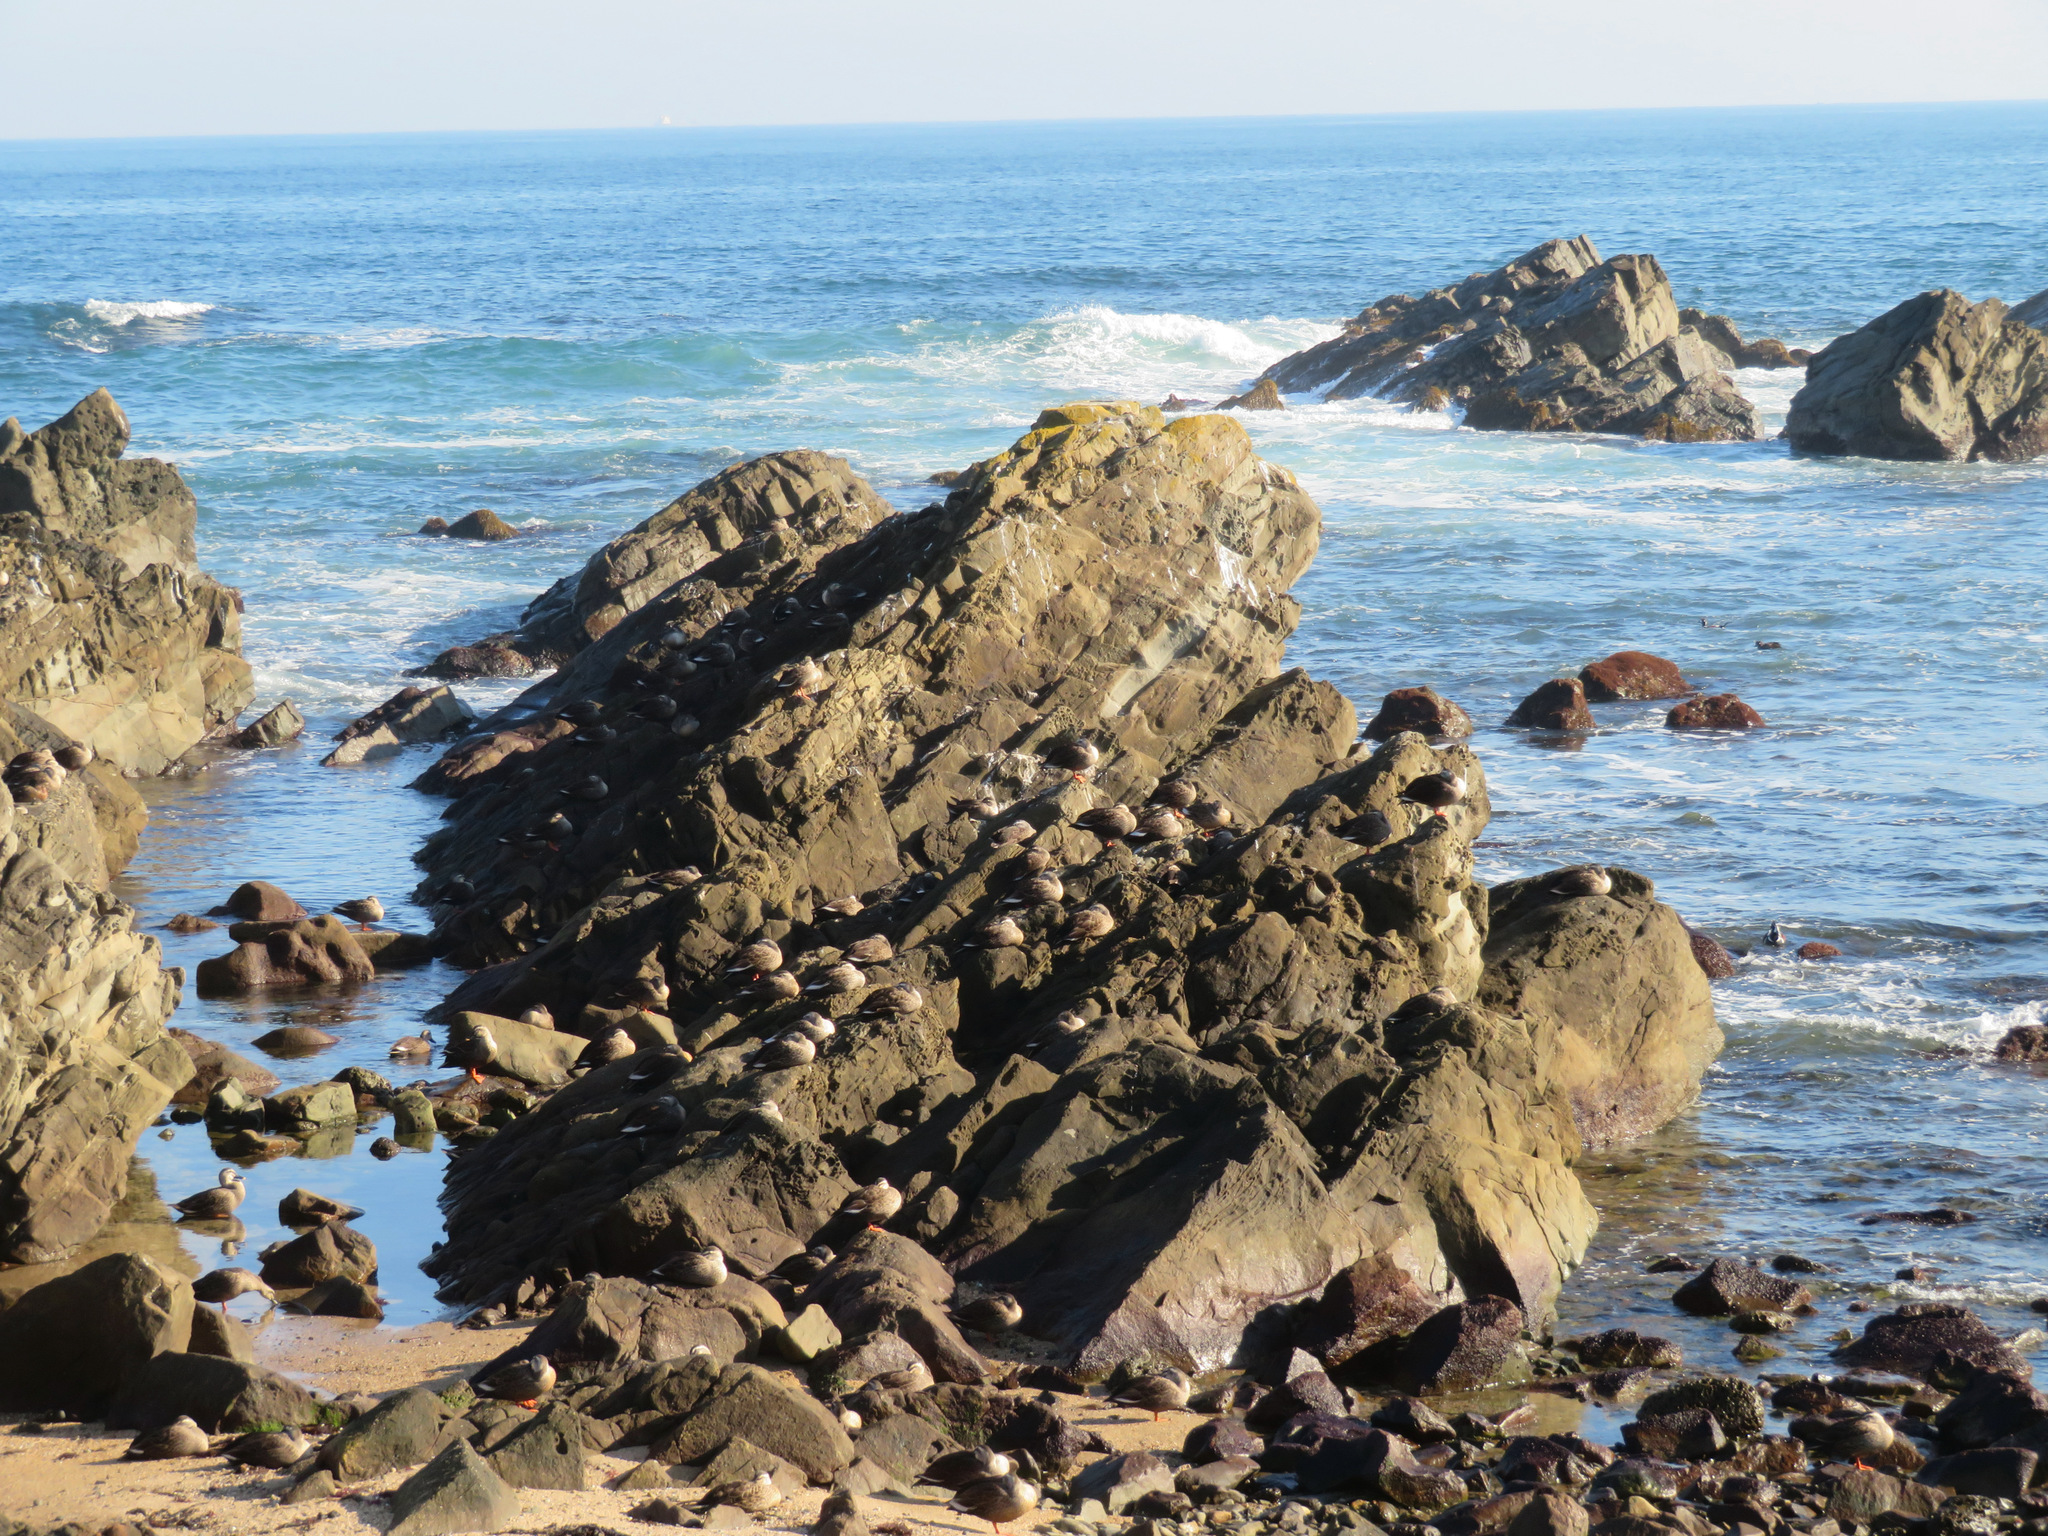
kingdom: Animalia
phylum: Chordata
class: Aves
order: Anseriformes
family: Anatidae
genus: Anas
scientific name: Anas zonorhyncha
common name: Eastern spot-billed duck
